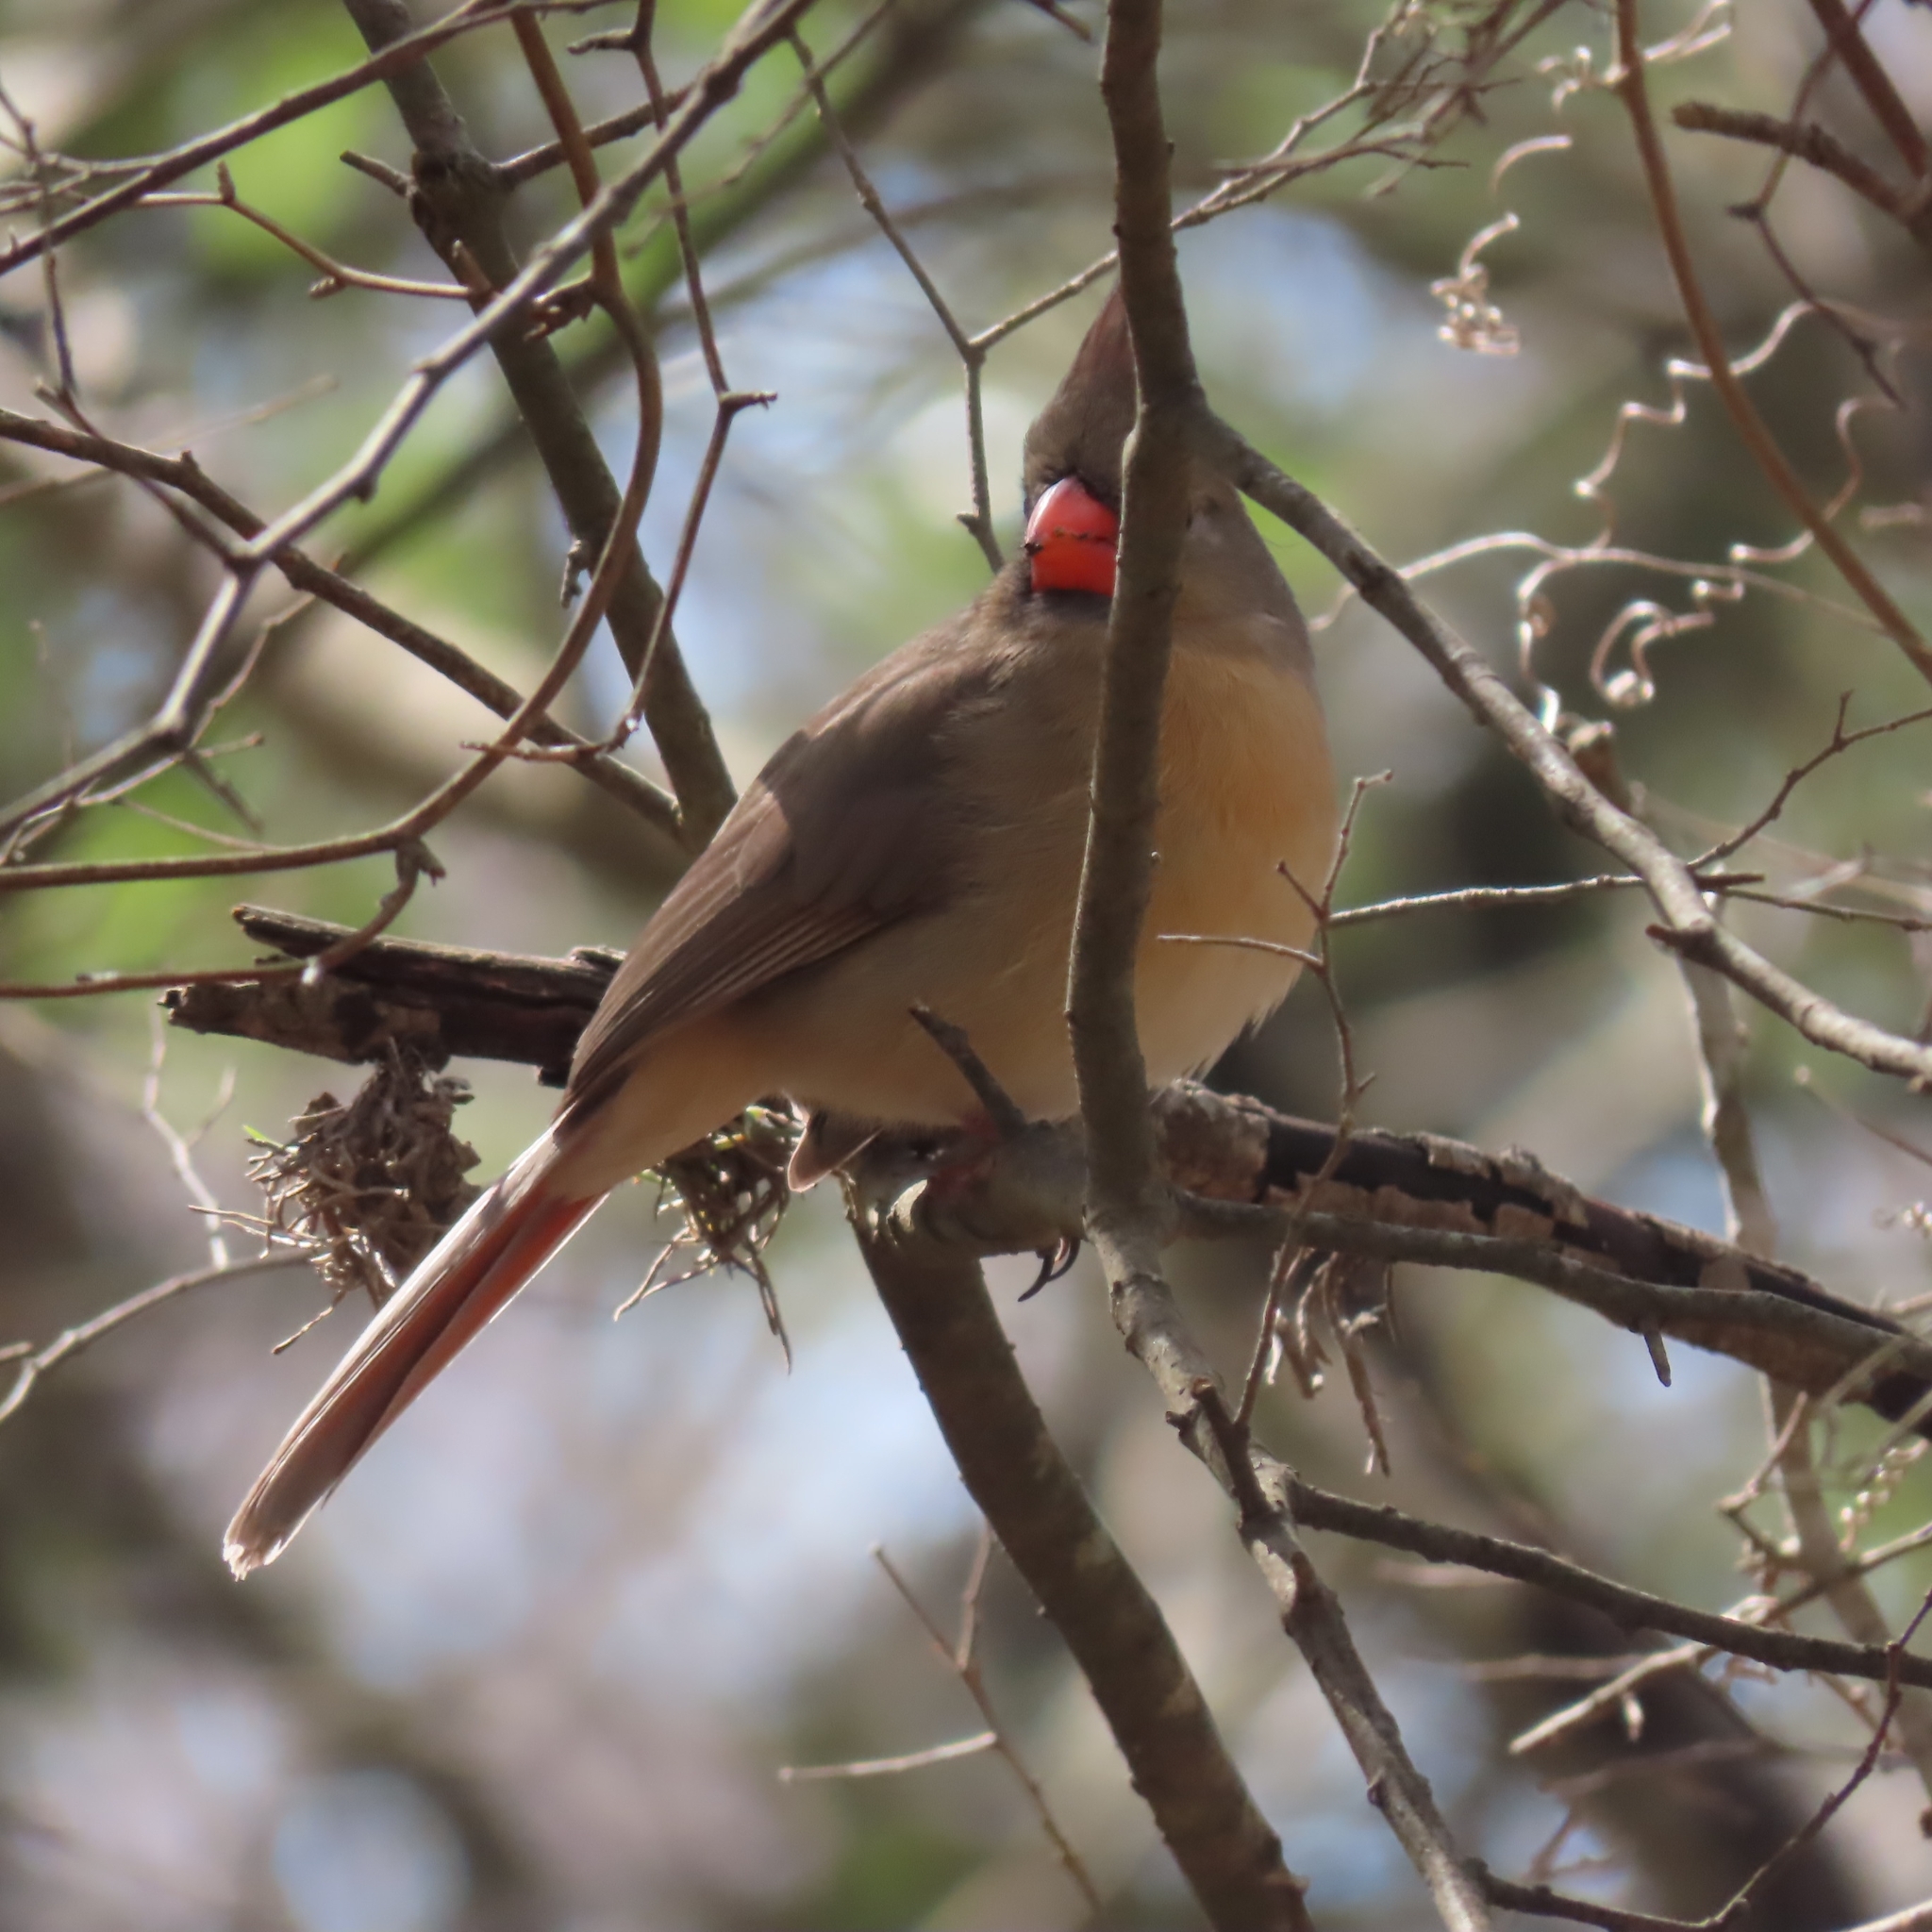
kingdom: Animalia
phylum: Chordata
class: Aves
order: Passeriformes
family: Cardinalidae
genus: Cardinalis
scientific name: Cardinalis cardinalis
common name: Northern cardinal
